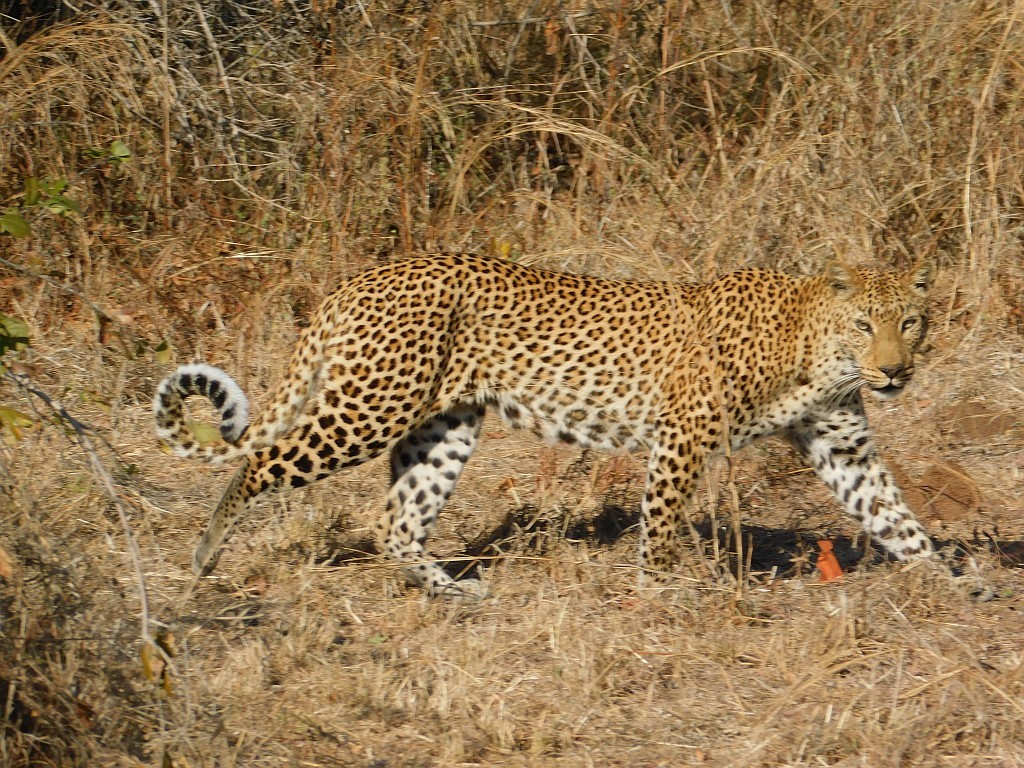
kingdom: Animalia
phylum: Chordata
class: Mammalia
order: Carnivora
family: Felidae
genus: Panthera
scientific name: Panthera pardus
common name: Leopard
